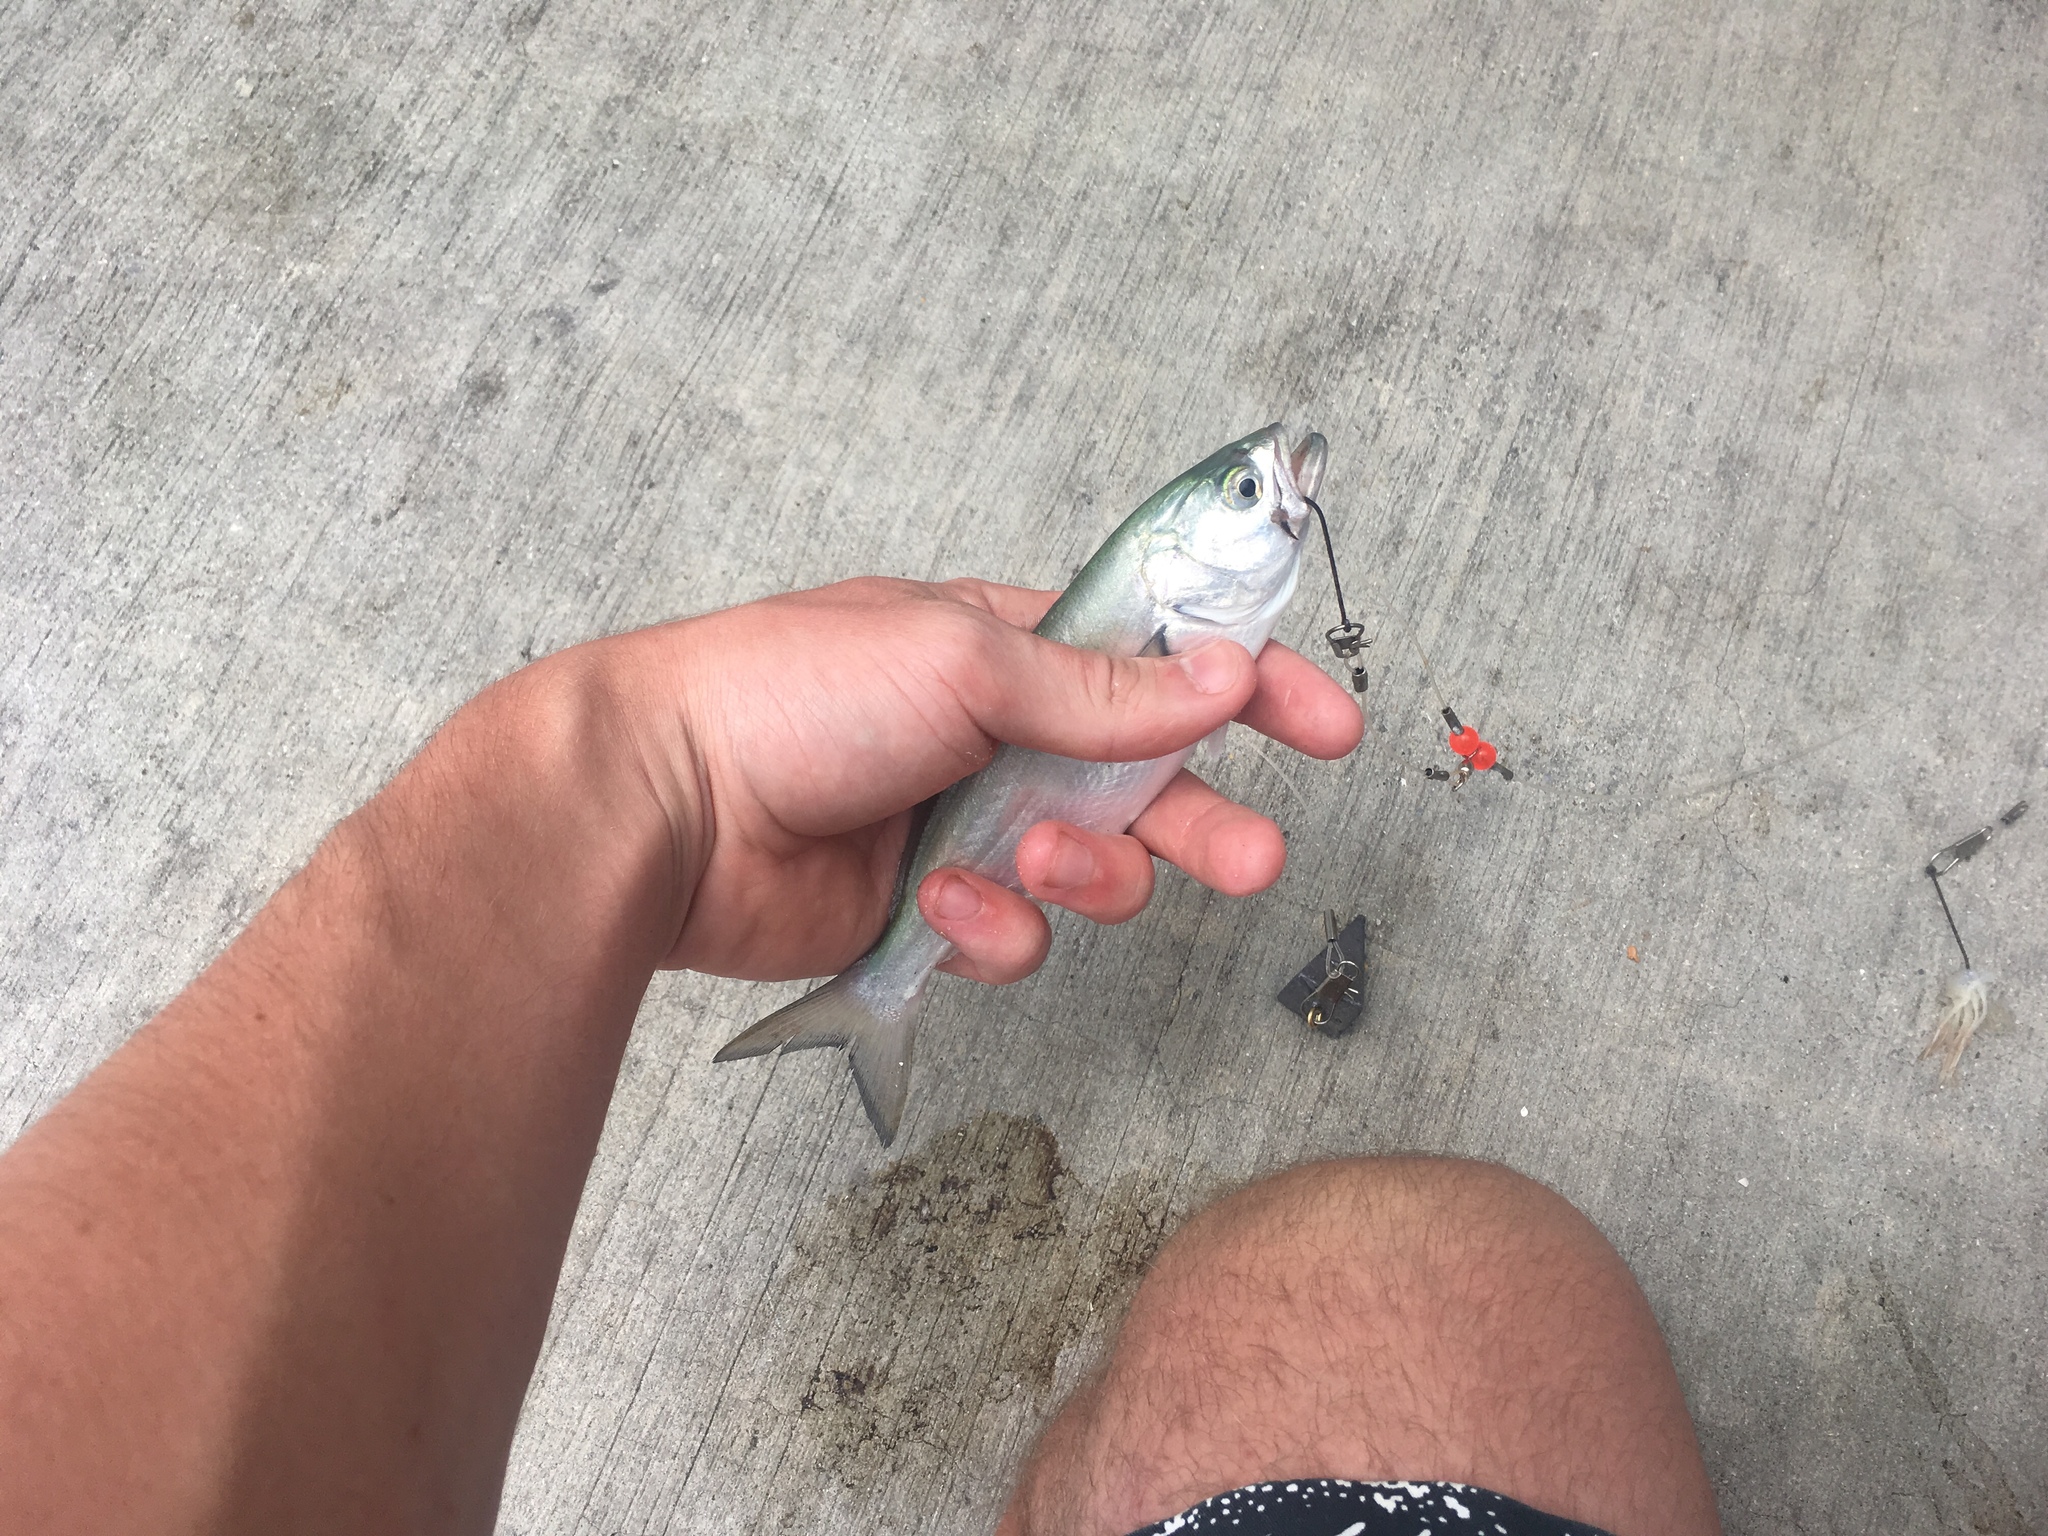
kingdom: Animalia
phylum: Chordata
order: Perciformes
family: Pomatomidae
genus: Pomatomus
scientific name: Pomatomus saltatrix
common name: Bluefish
